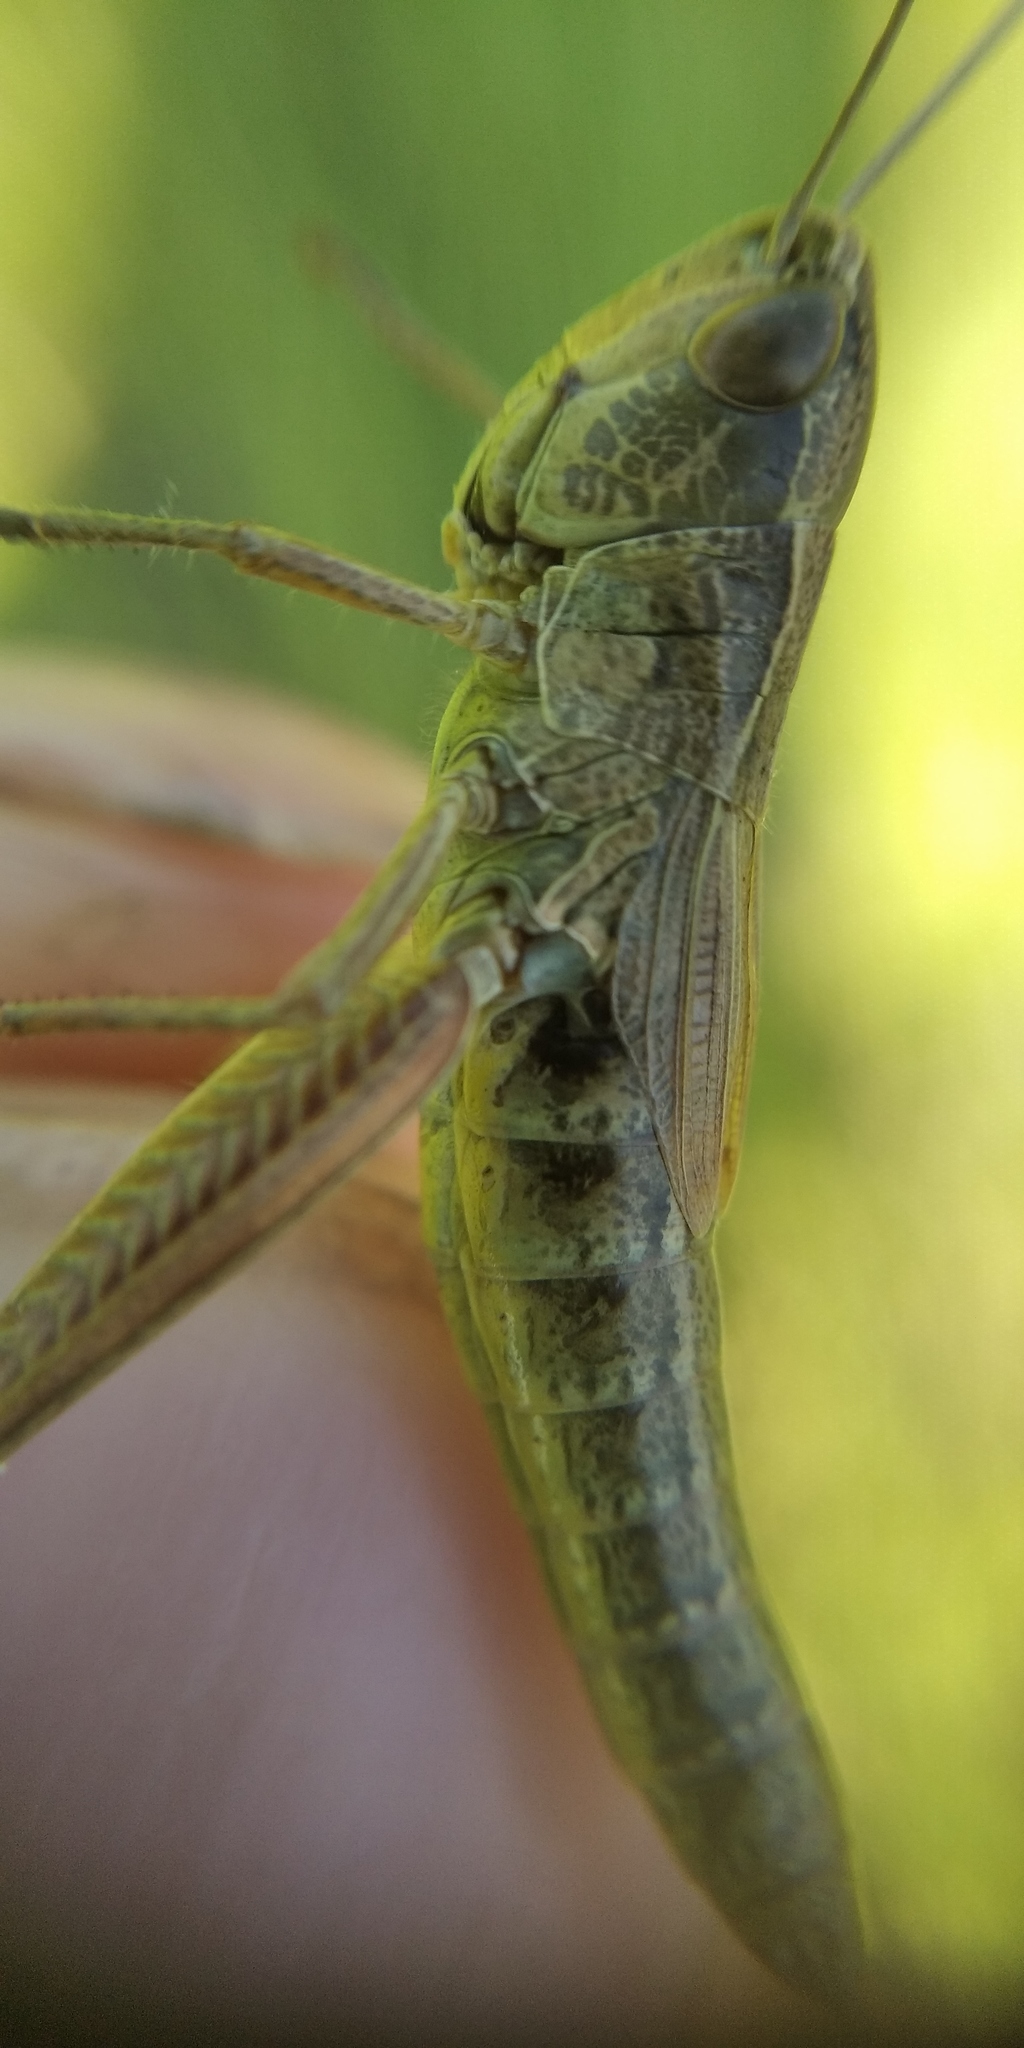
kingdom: Animalia
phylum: Arthropoda
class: Insecta
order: Orthoptera
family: Acrididae
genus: Pseudochorthippus
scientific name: Pseudochorthippus parallelus
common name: Meadow grasshopper
